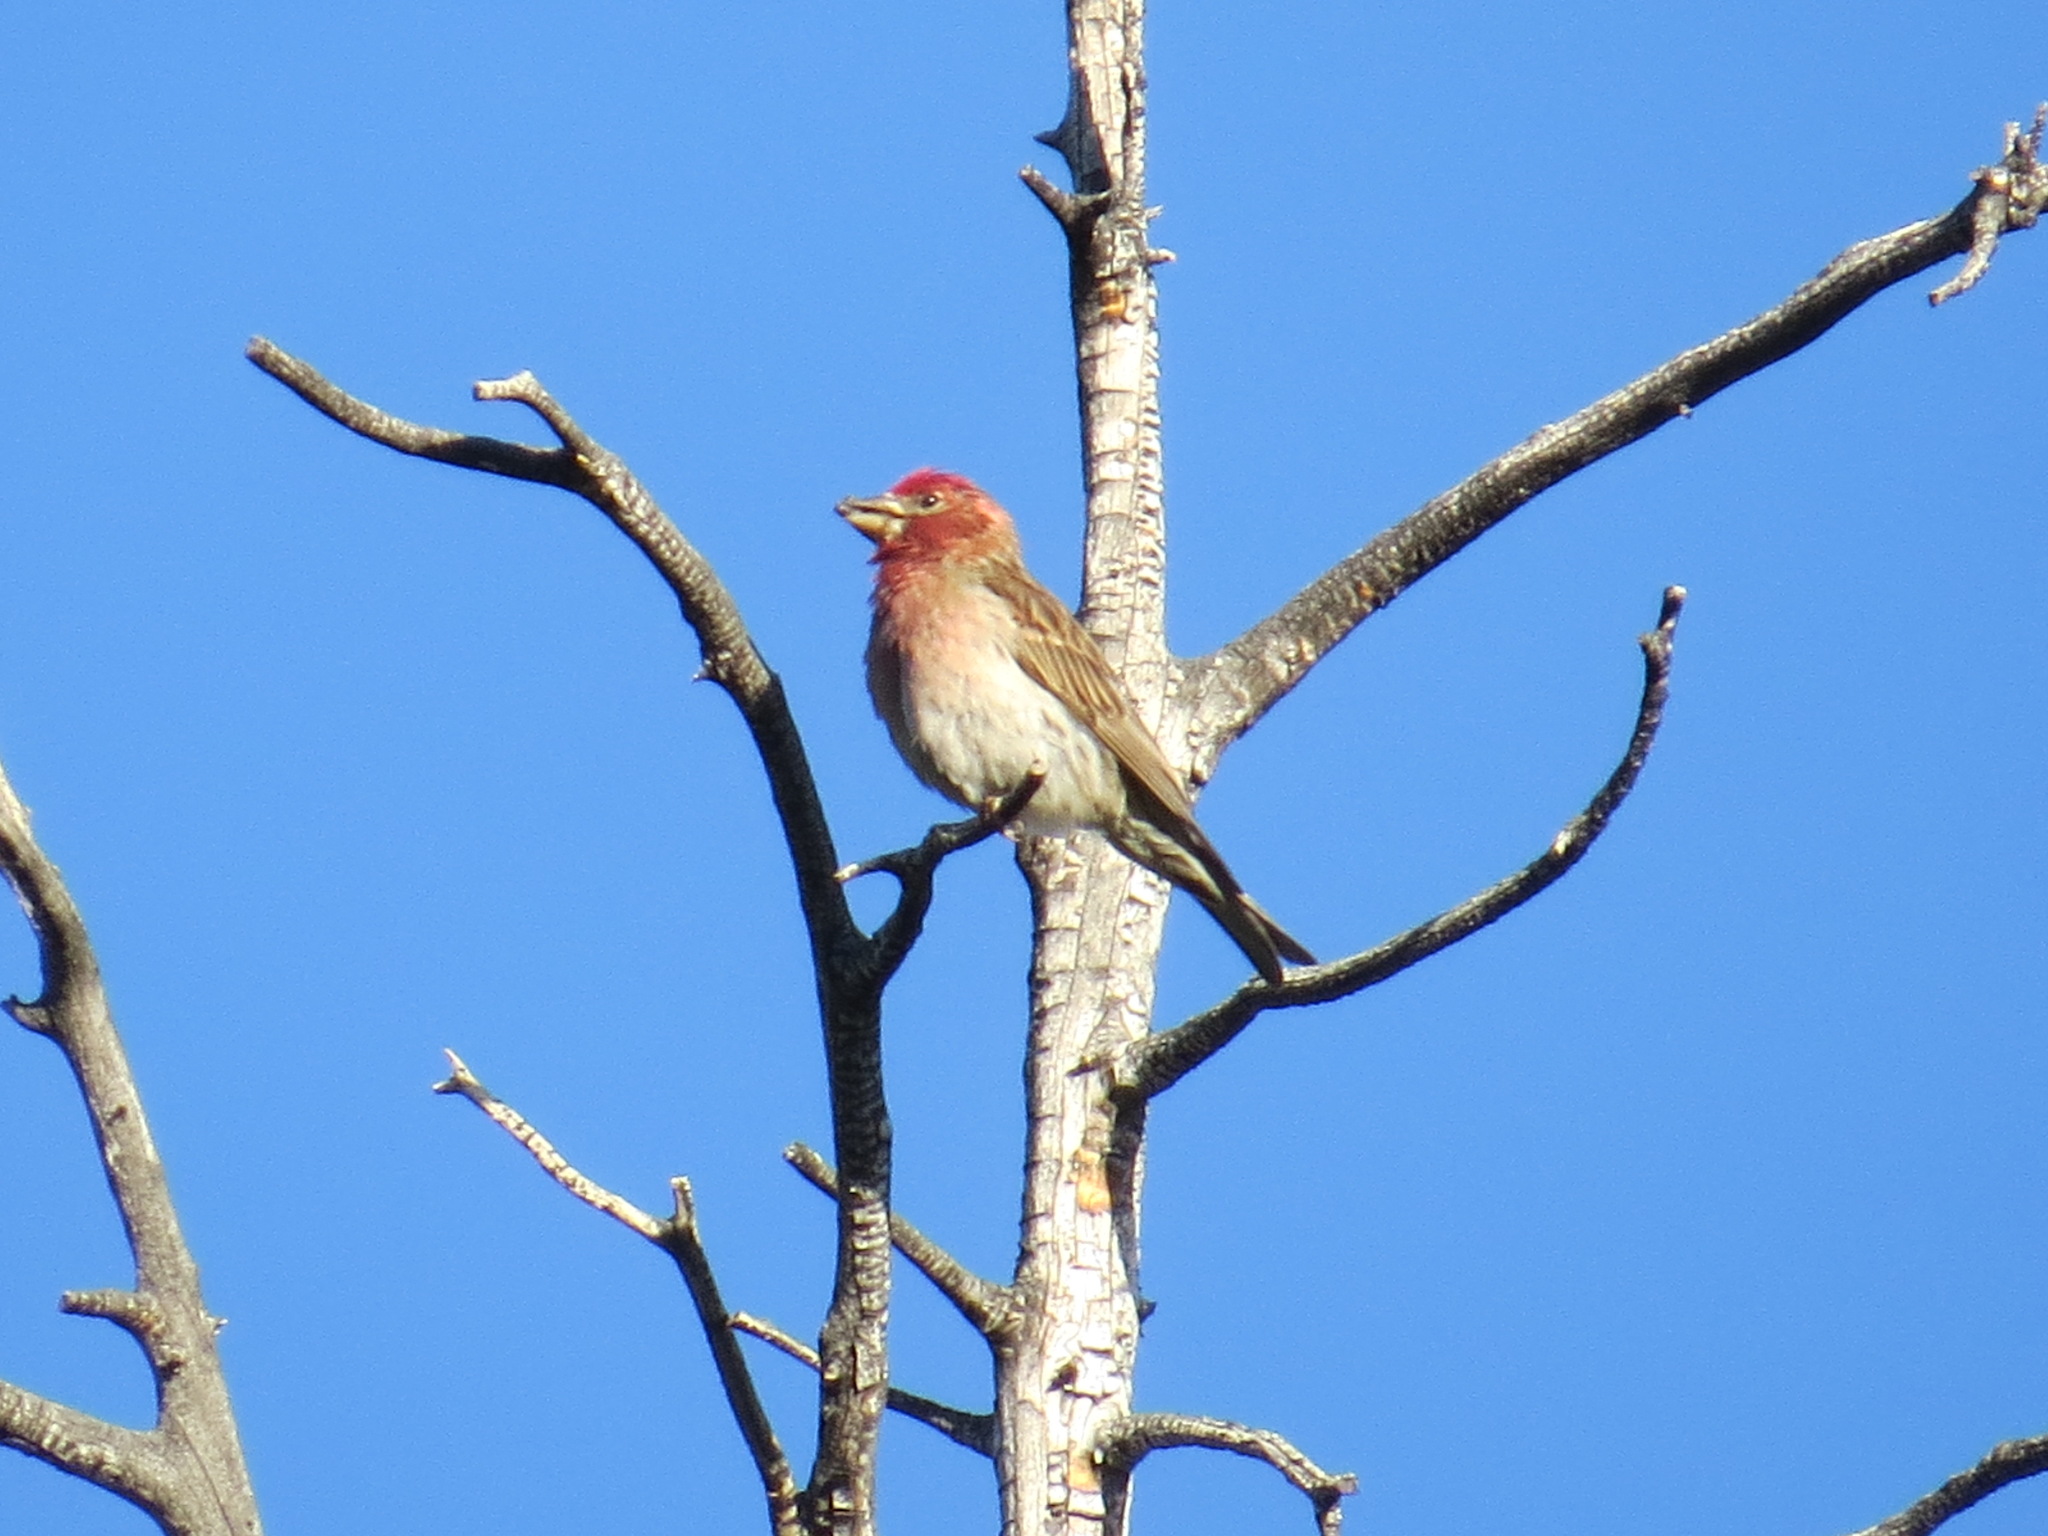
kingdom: Animalia
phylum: Chordata
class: Aves
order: Passeriformes
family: Fringillidae
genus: Haemorhous
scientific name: Haemorhous cassinii
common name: Cassin's finch
